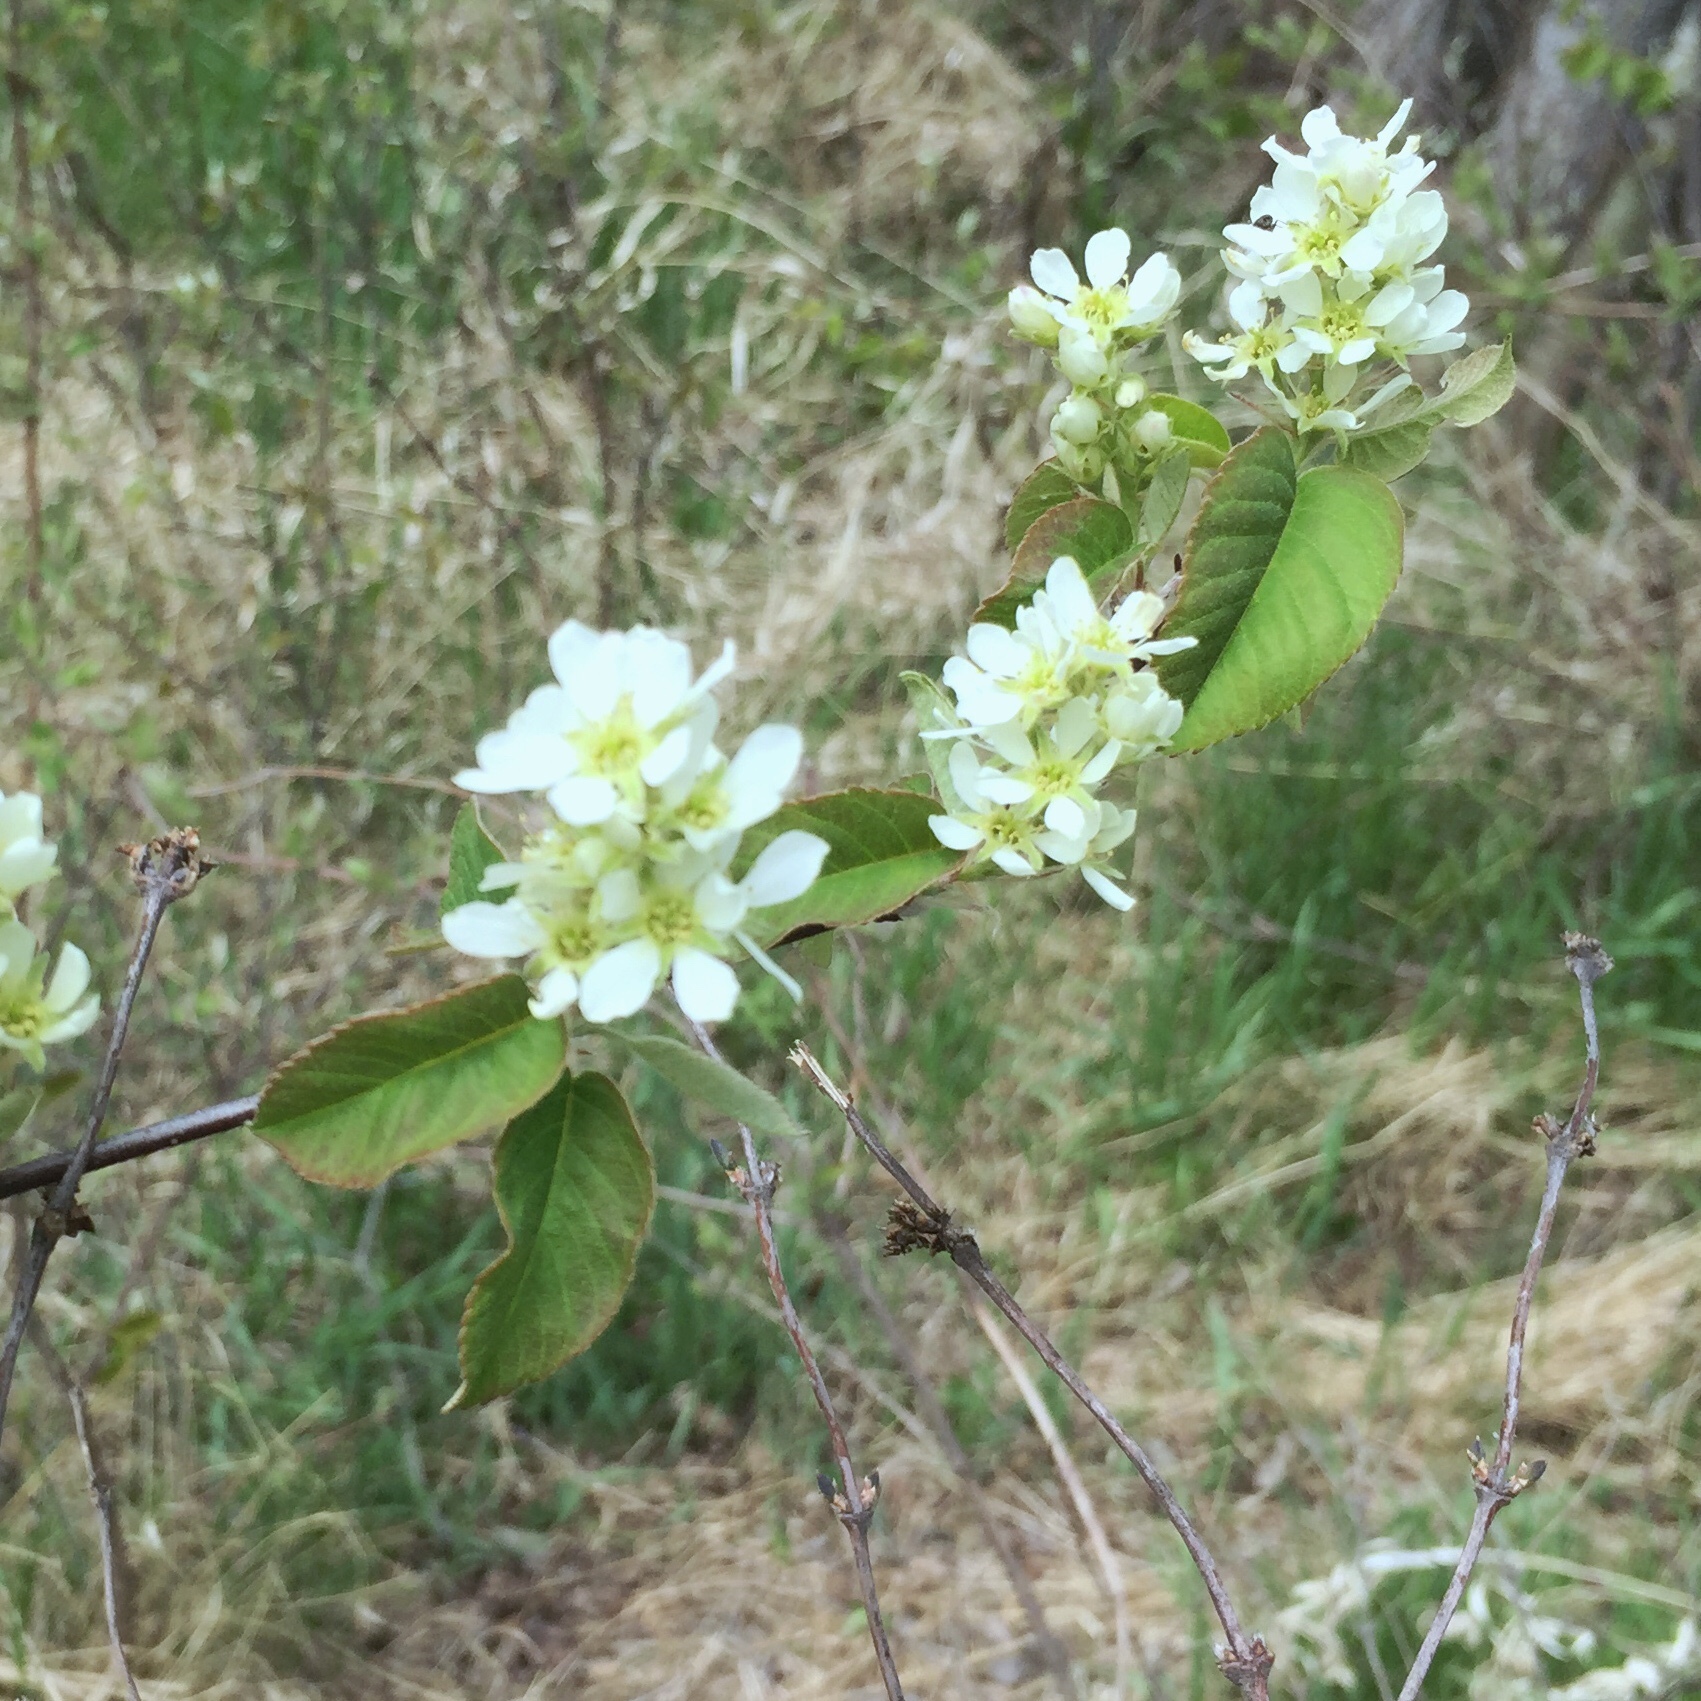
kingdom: Plantae
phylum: Tracheophyta
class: Magnoliopsida
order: Rosales
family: Rosaceae
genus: Amelanchier
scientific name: Amelanchier alnifolia
